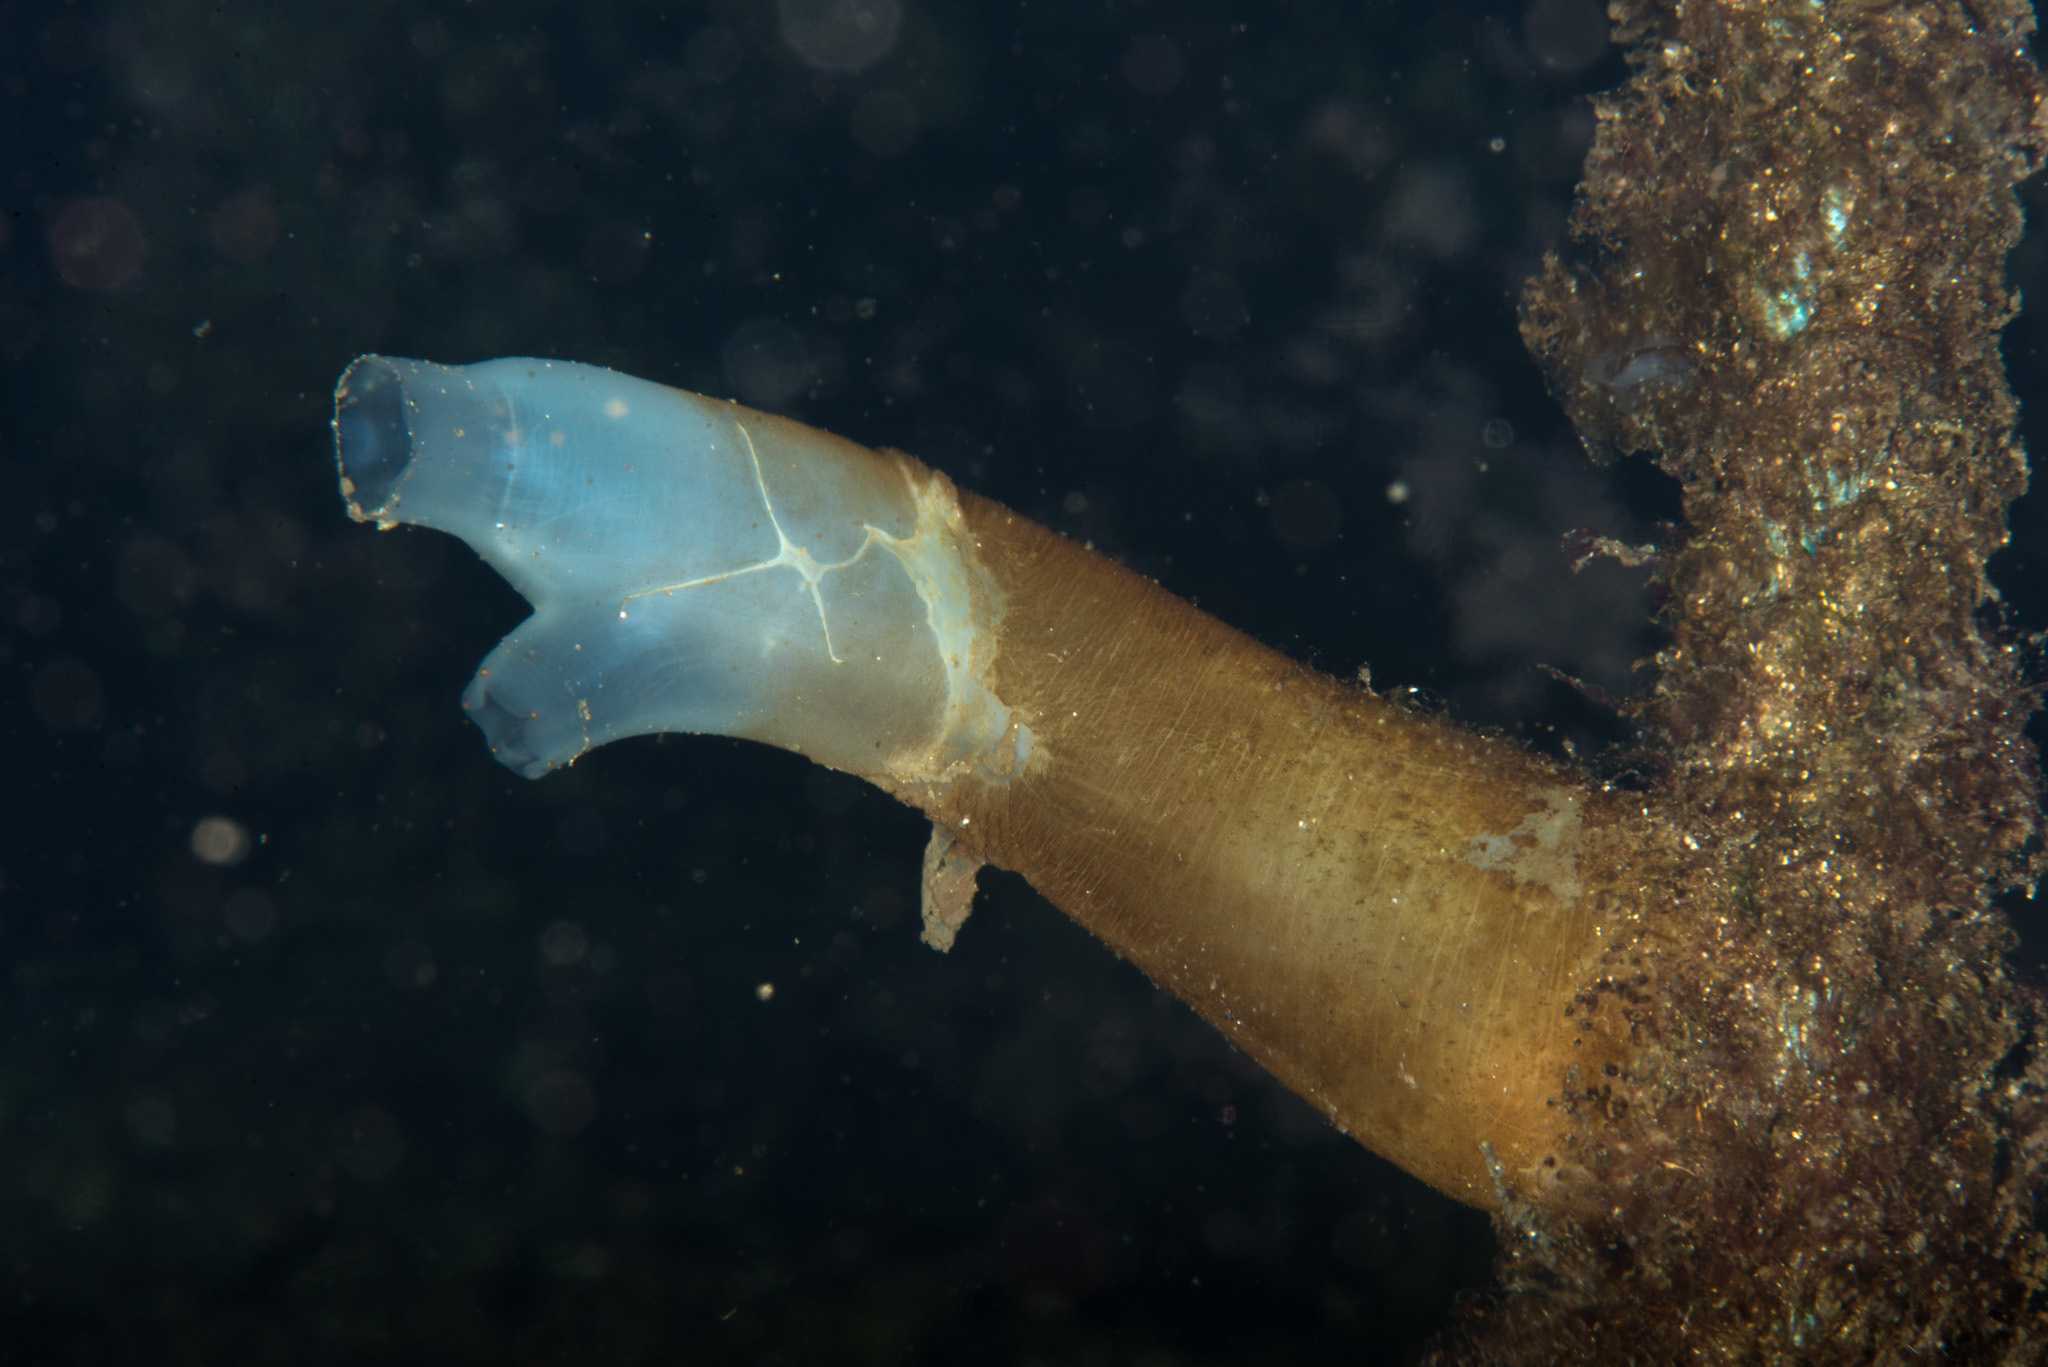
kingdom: Animalia
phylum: Chordata
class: Ascidiacea
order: Phlebobranchia
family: Cionidae
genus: Ciona
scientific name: Ciona intestinalis
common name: Vase tunicate
